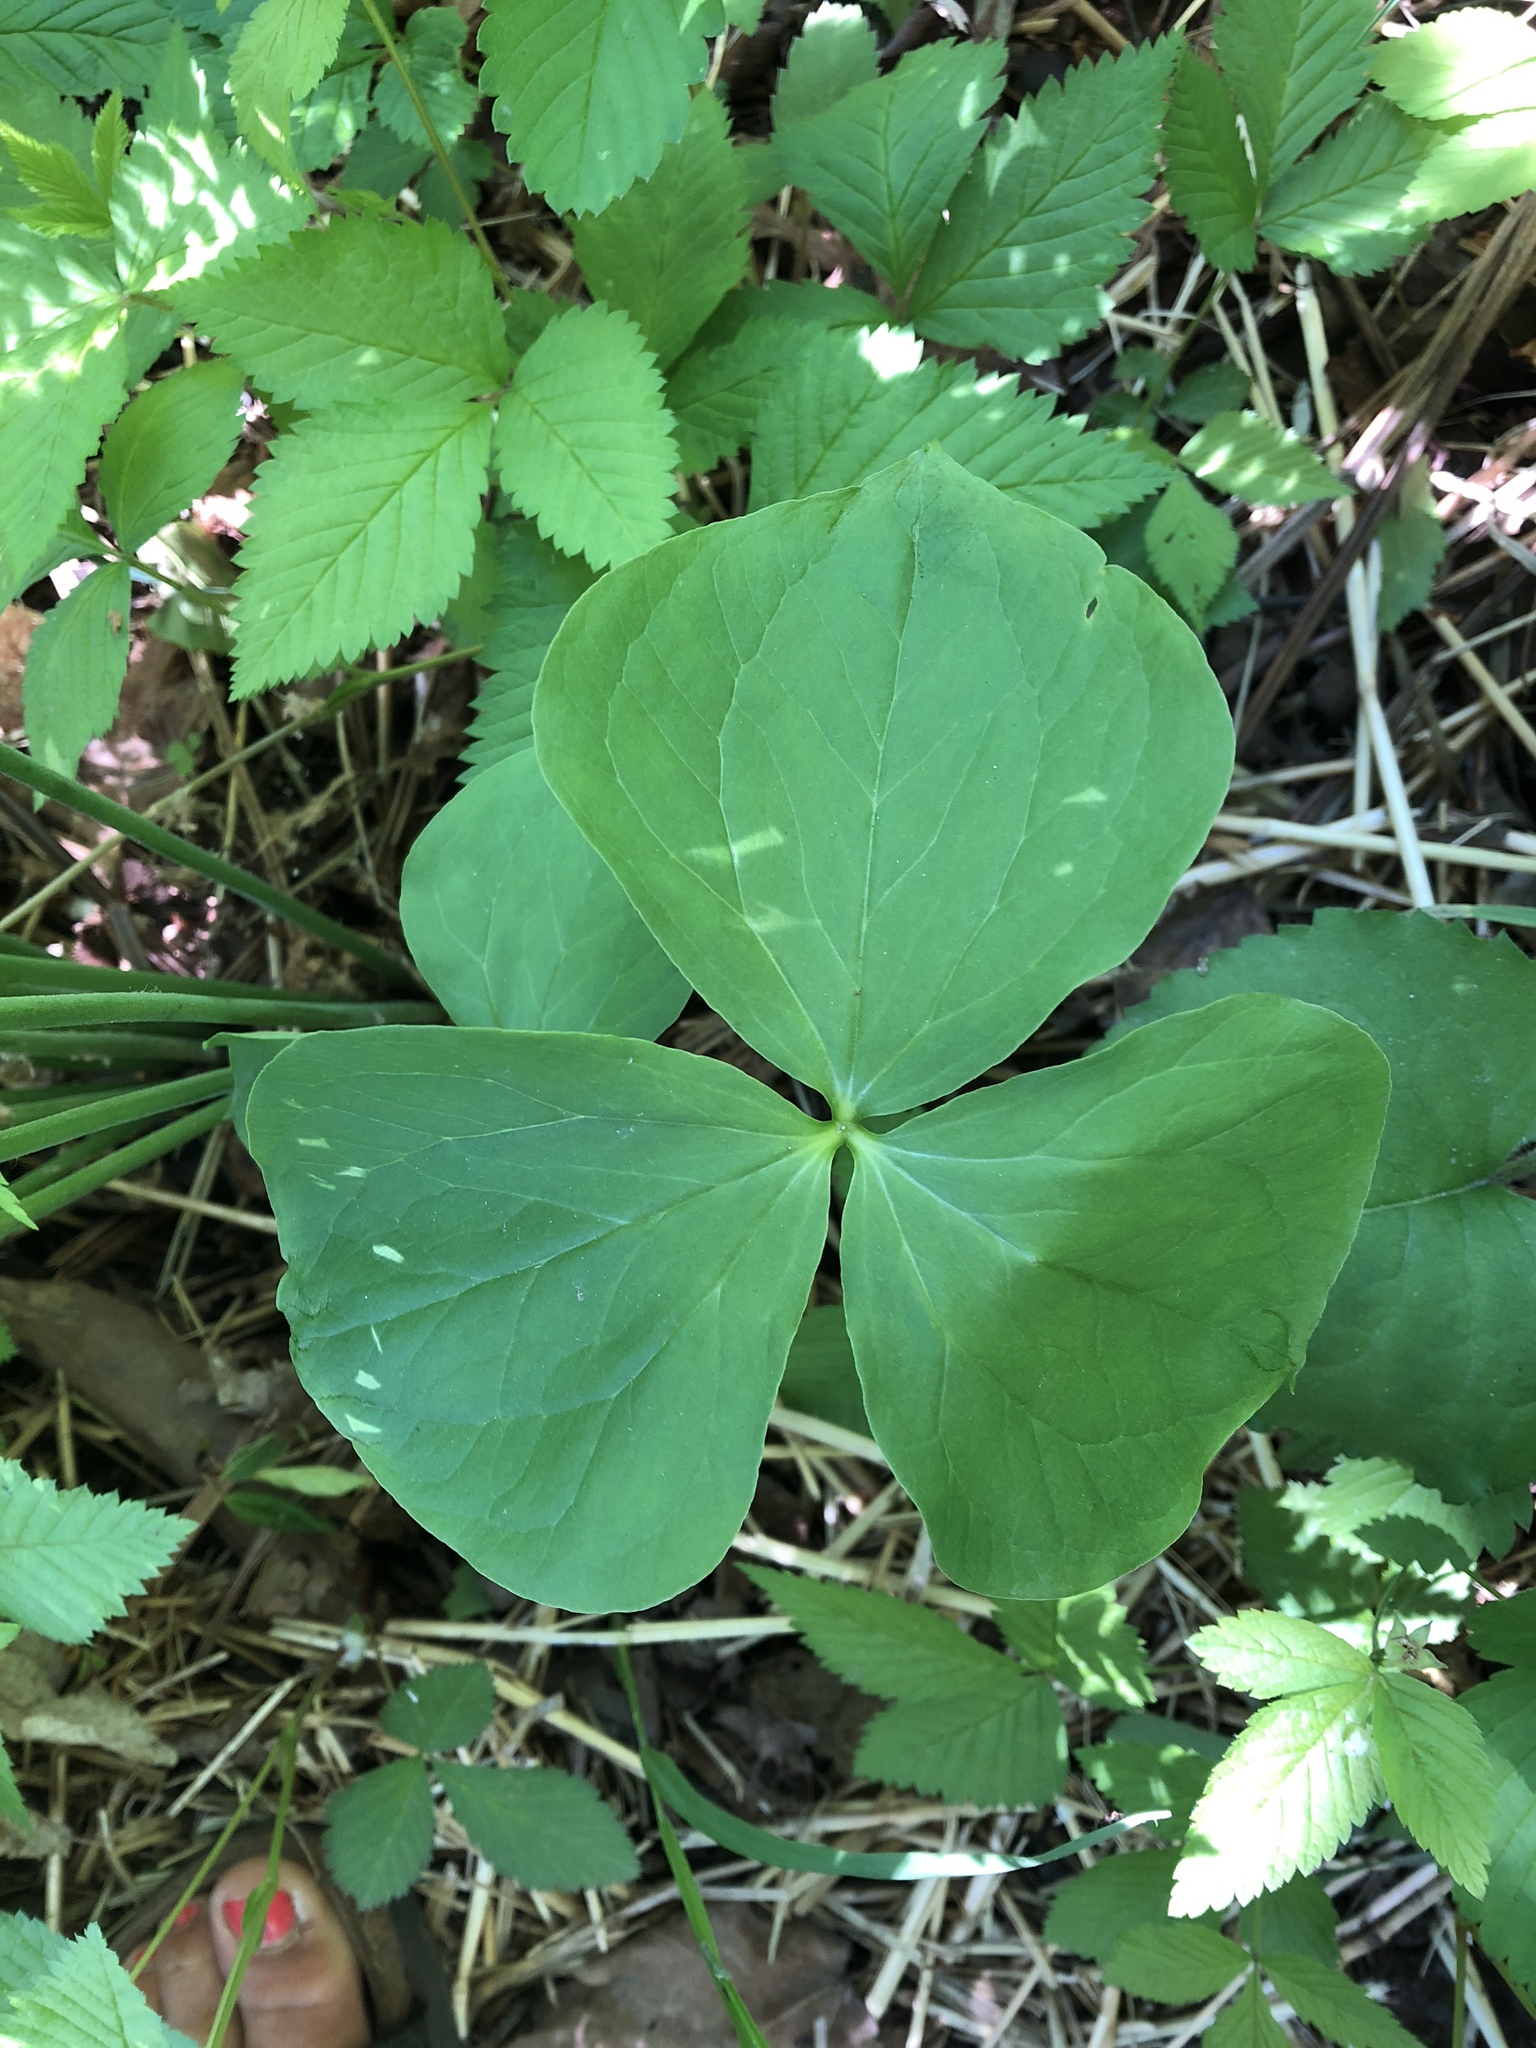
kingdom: Plantae
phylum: Tracheophyta
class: Liliopsida
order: Liliales
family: Melanthiaceae
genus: Trillium
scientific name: Trillium cernuum
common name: Nodding trillium
